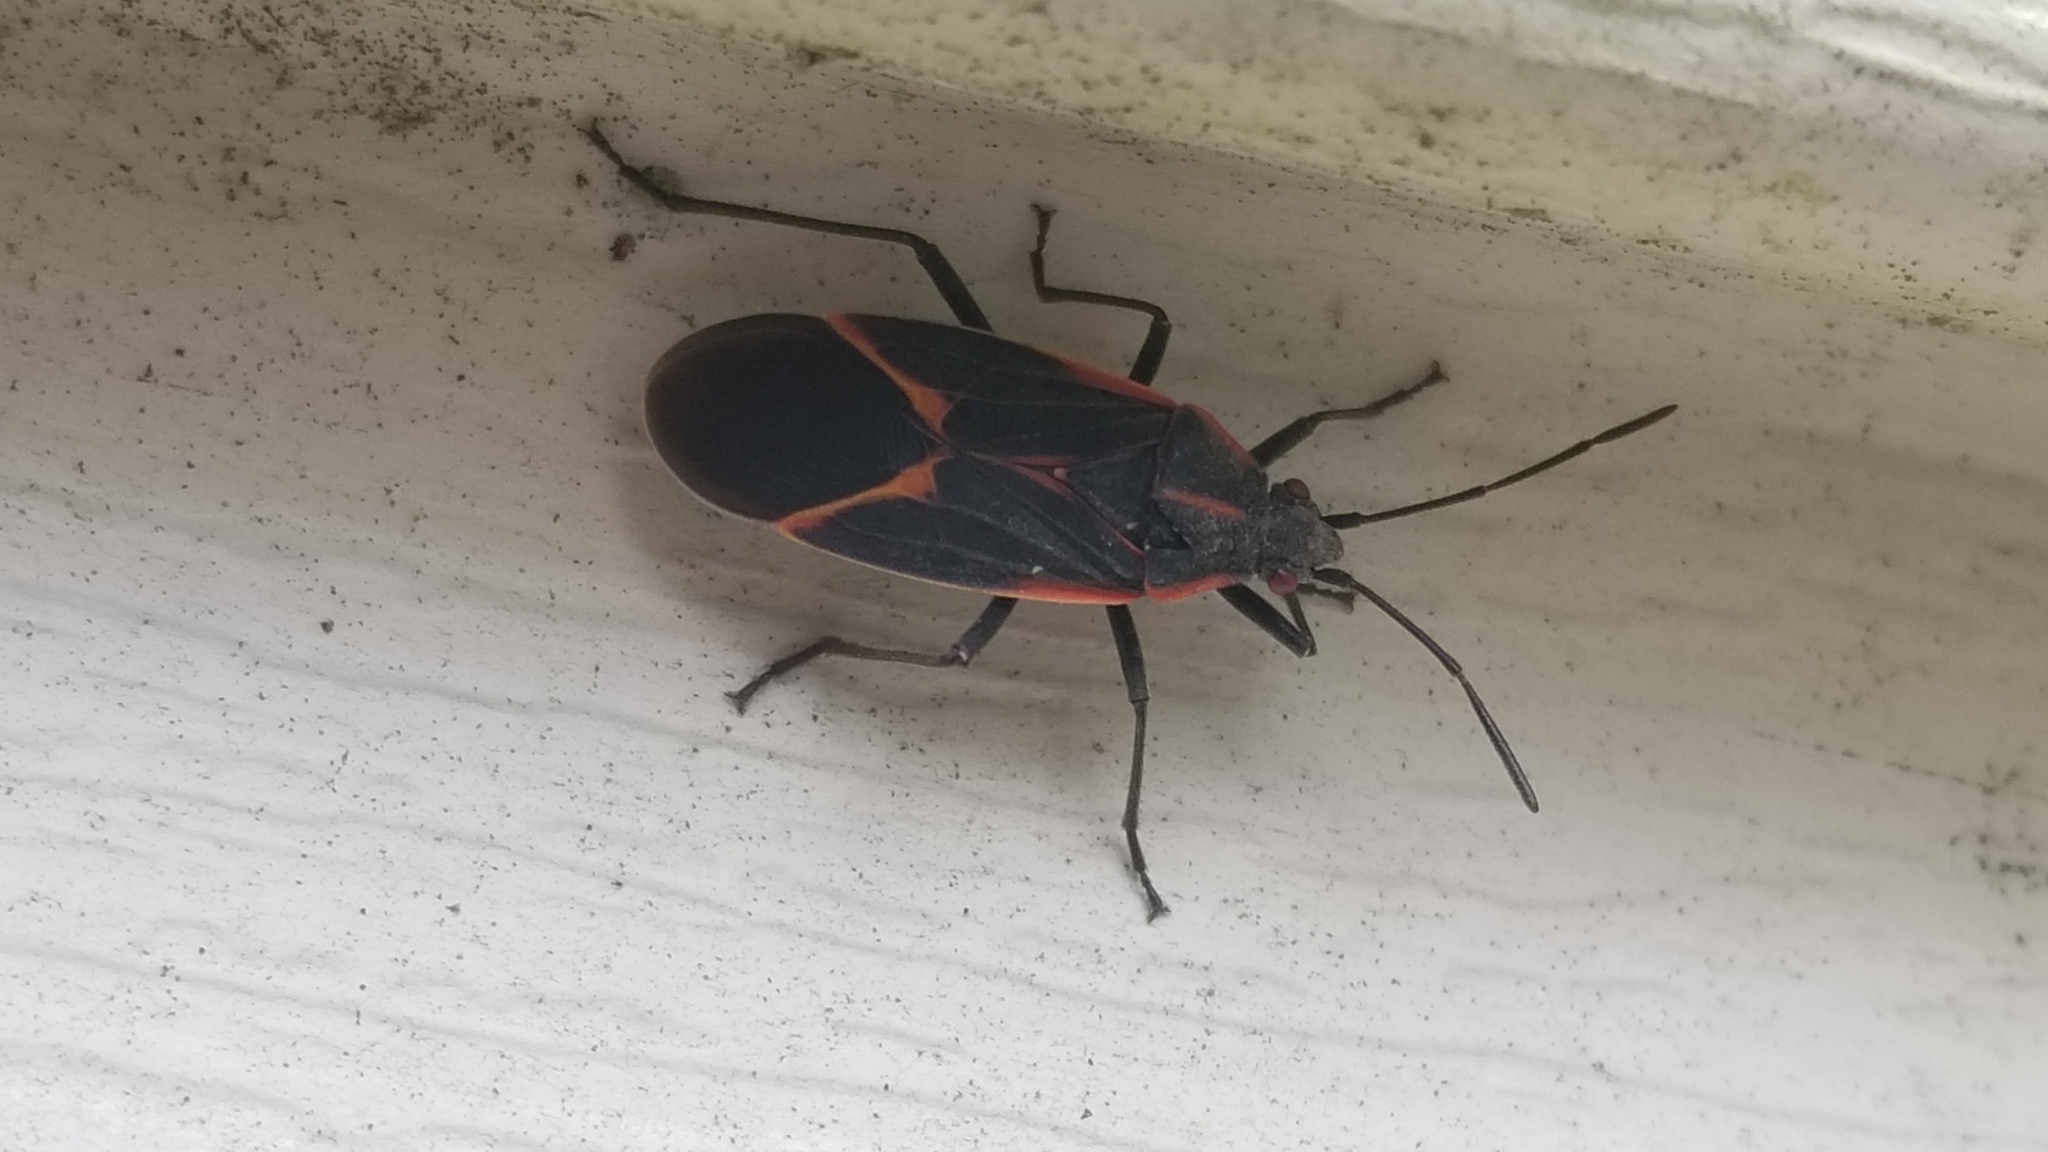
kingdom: Animalia
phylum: Arthropoda
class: Insecta
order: Hemiptera
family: Rhopalidae
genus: Boisea
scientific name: Boisea trivittata
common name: Boxelder bug
